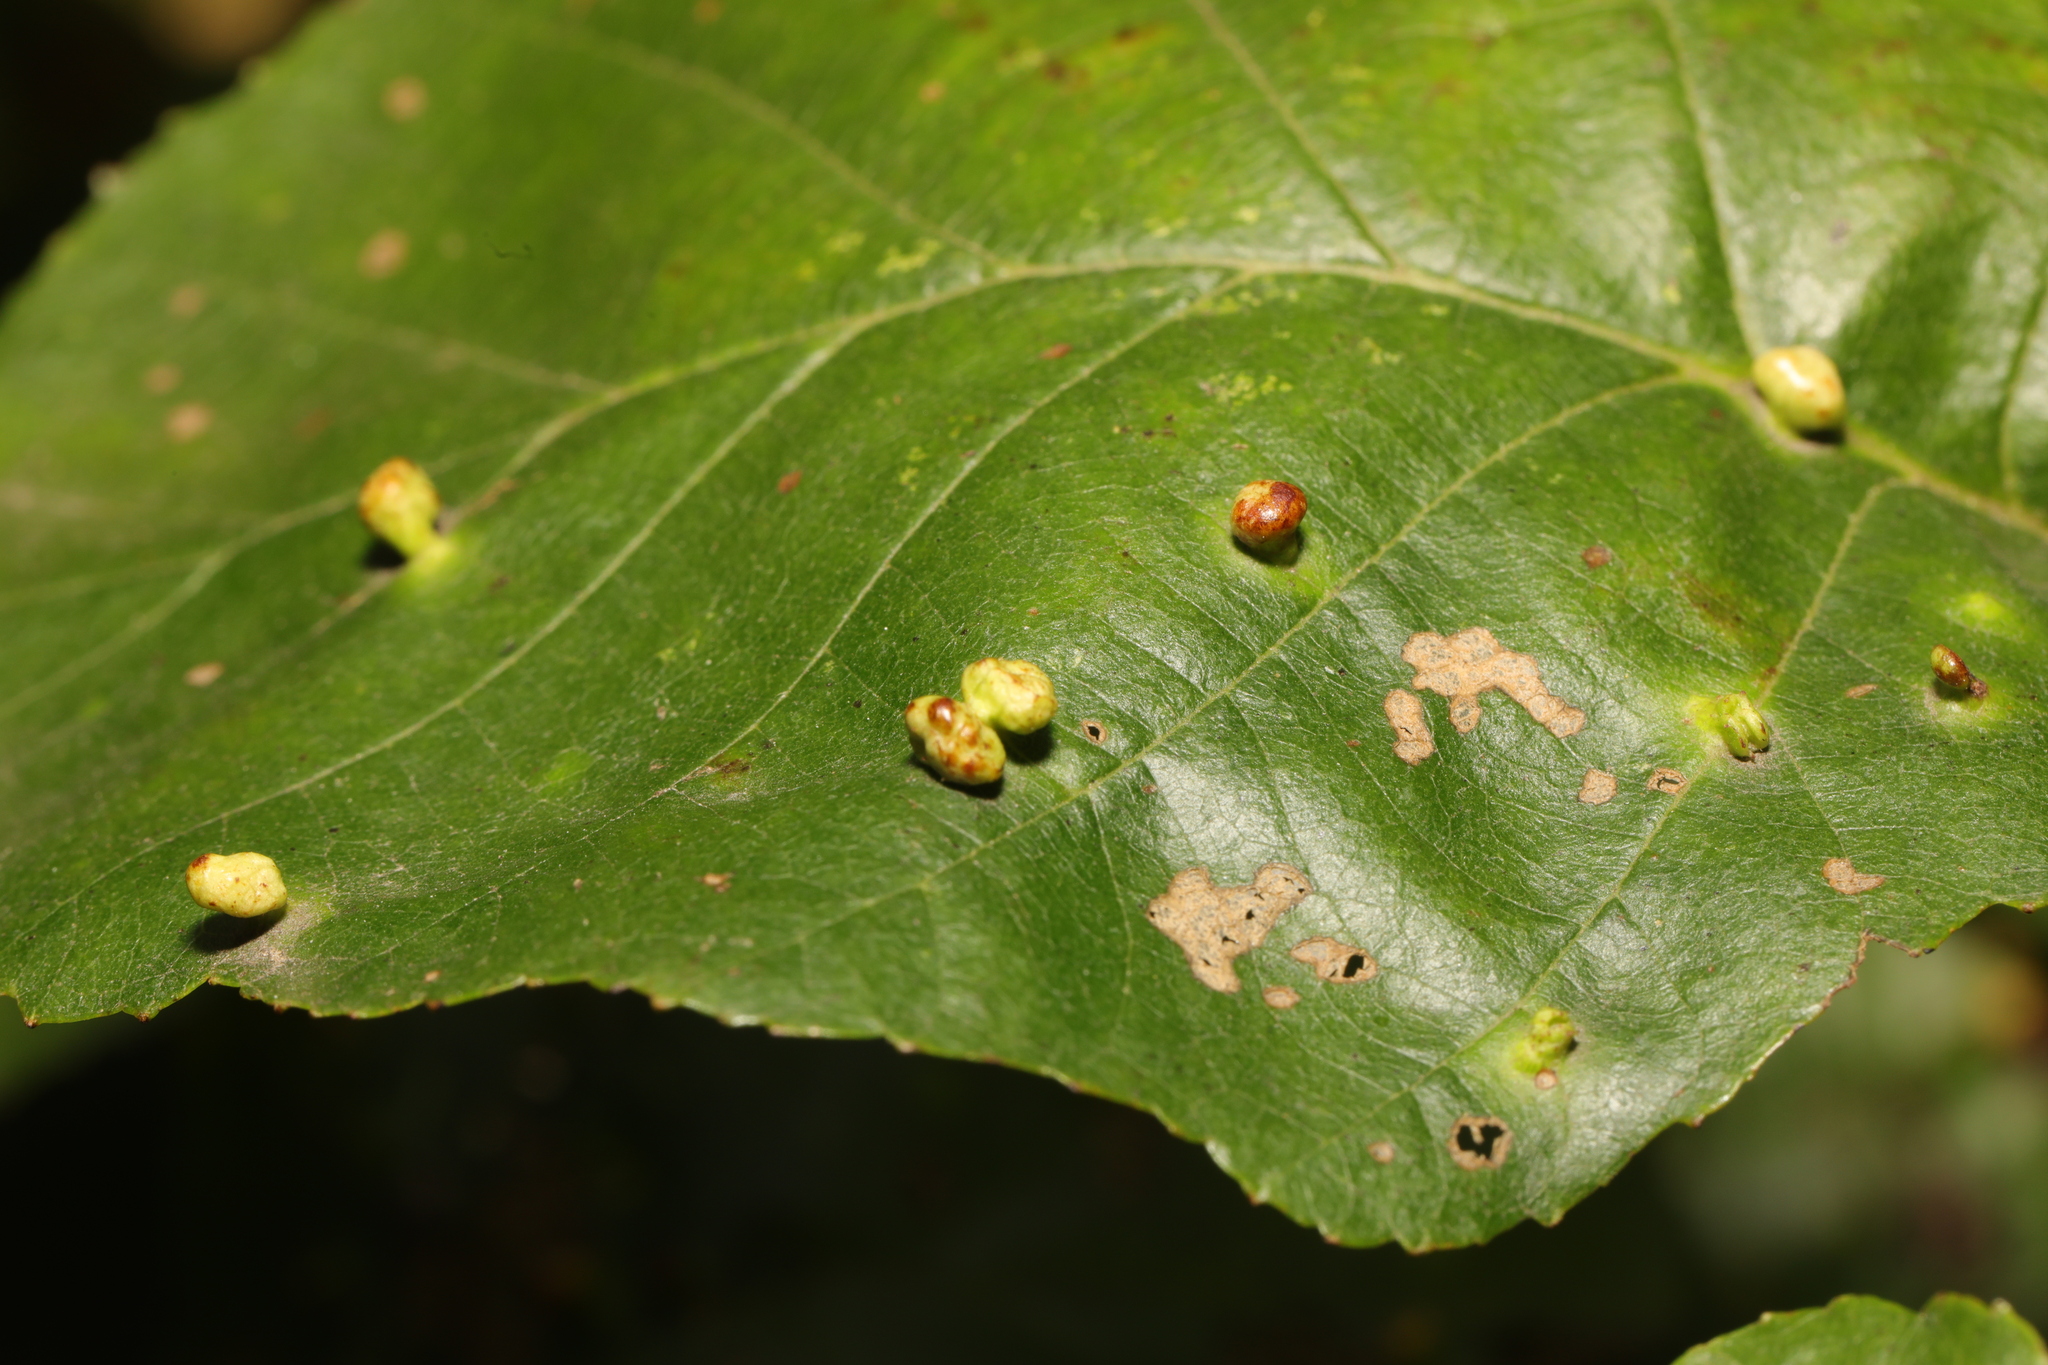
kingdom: Animalia
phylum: Arthropoda
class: Arachnida
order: Trombidiformes
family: Eriophyidae
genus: Eriophyes
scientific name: Eriophyes laevis
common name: Alder leaf gall mite
